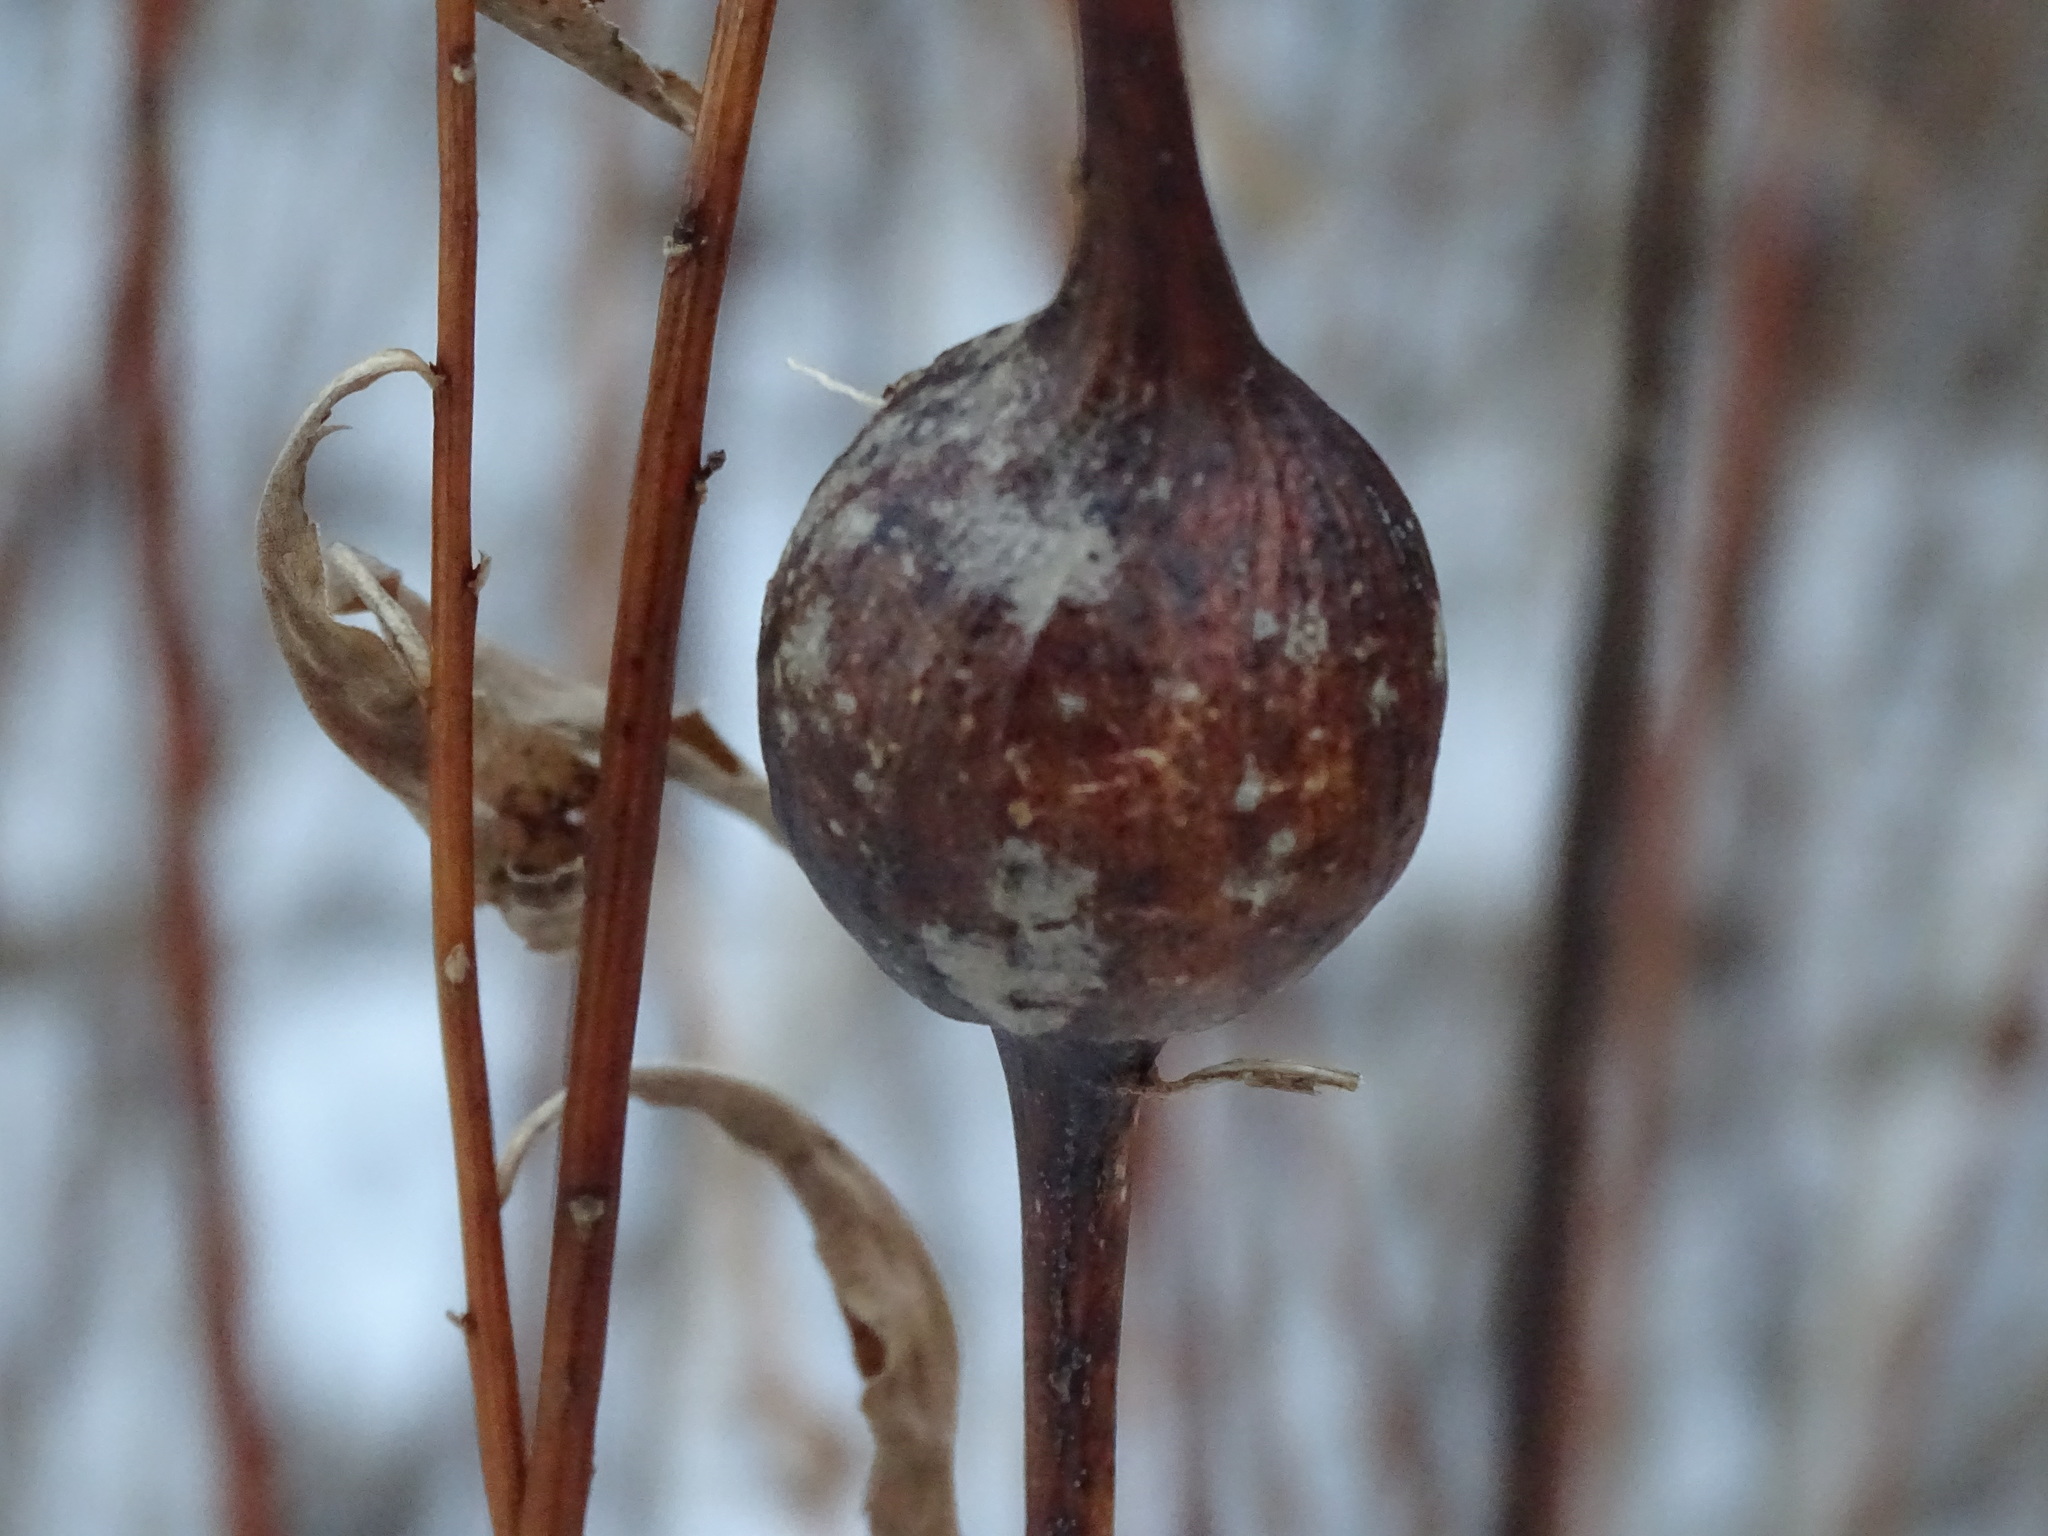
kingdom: Animalia
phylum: Arthropoda
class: Insecta
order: Diptera
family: Tephritidae
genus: Eurosta
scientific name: Eurosta solidaginis
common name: Goldenrod gall fly
